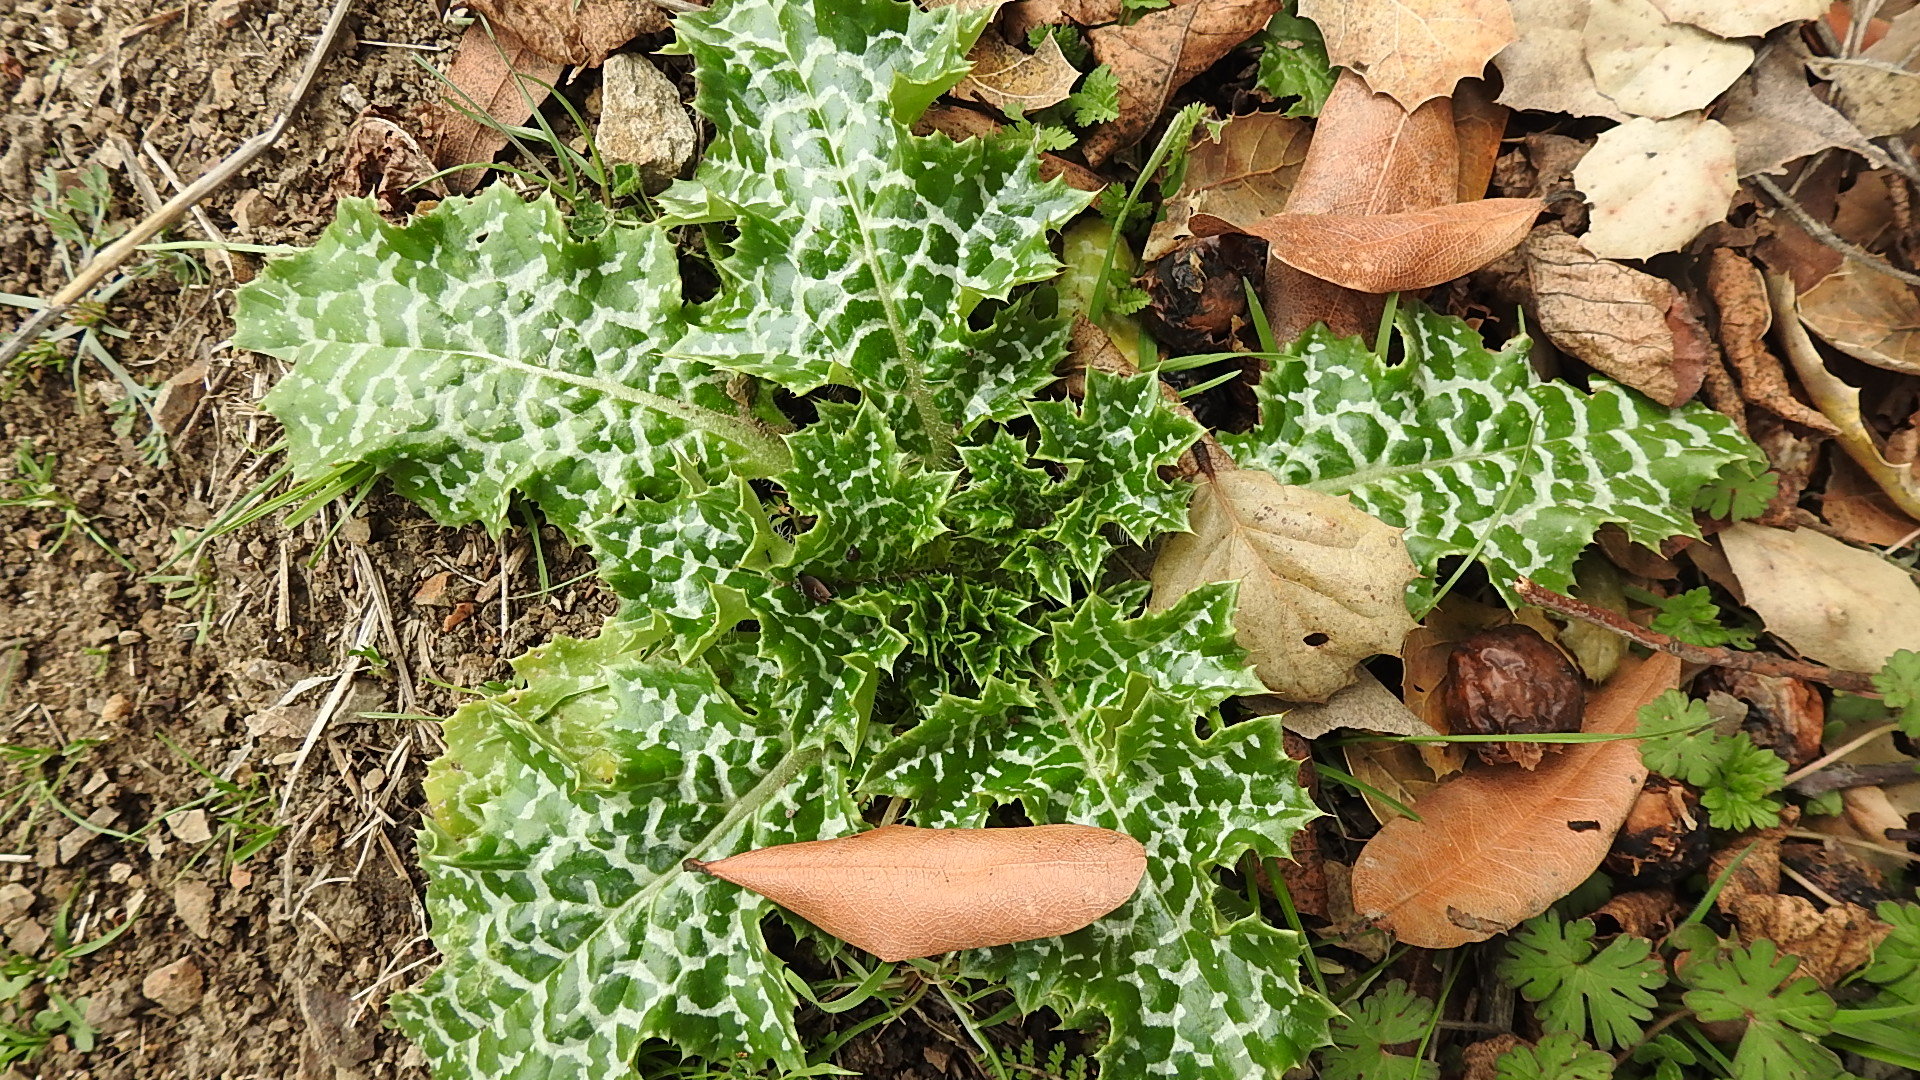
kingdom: Plantae
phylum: Tracheophyta
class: Magnoliopsida
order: Asterales
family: Asteraceae
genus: Silybum
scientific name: Silybum marianum
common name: Milk thistle
